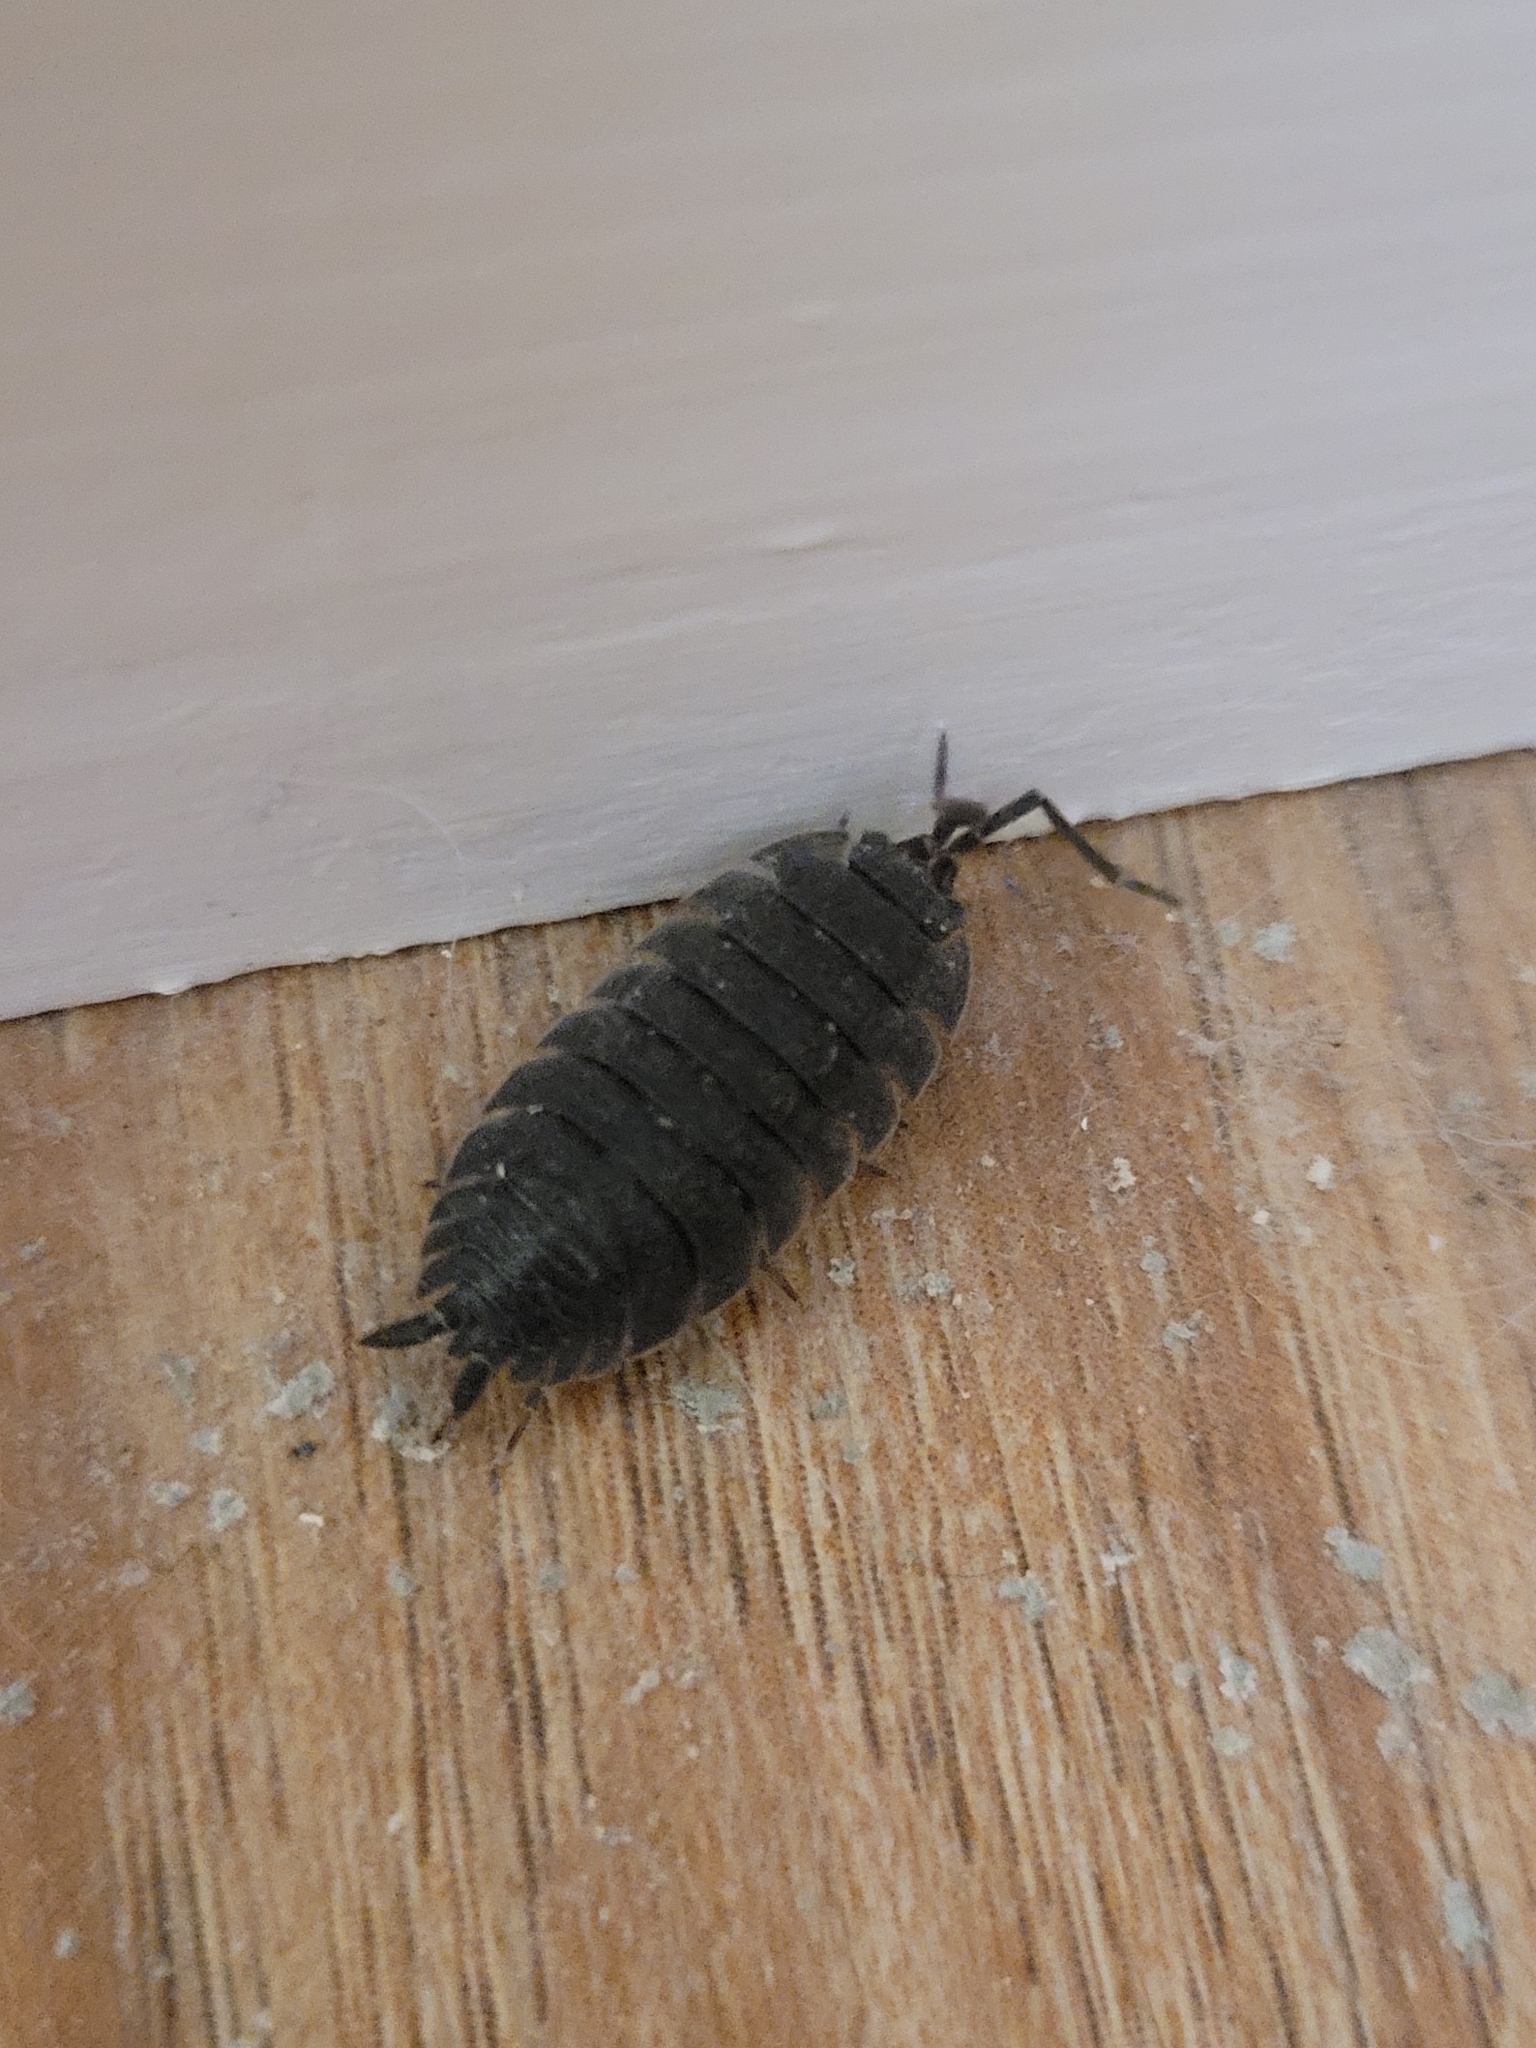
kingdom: Animalia
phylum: Arthropoda
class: Malacostraca
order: Isopoda
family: Porcellionidae
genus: Porcellio
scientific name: Porcellio scaber
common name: Common rough woodlouse
